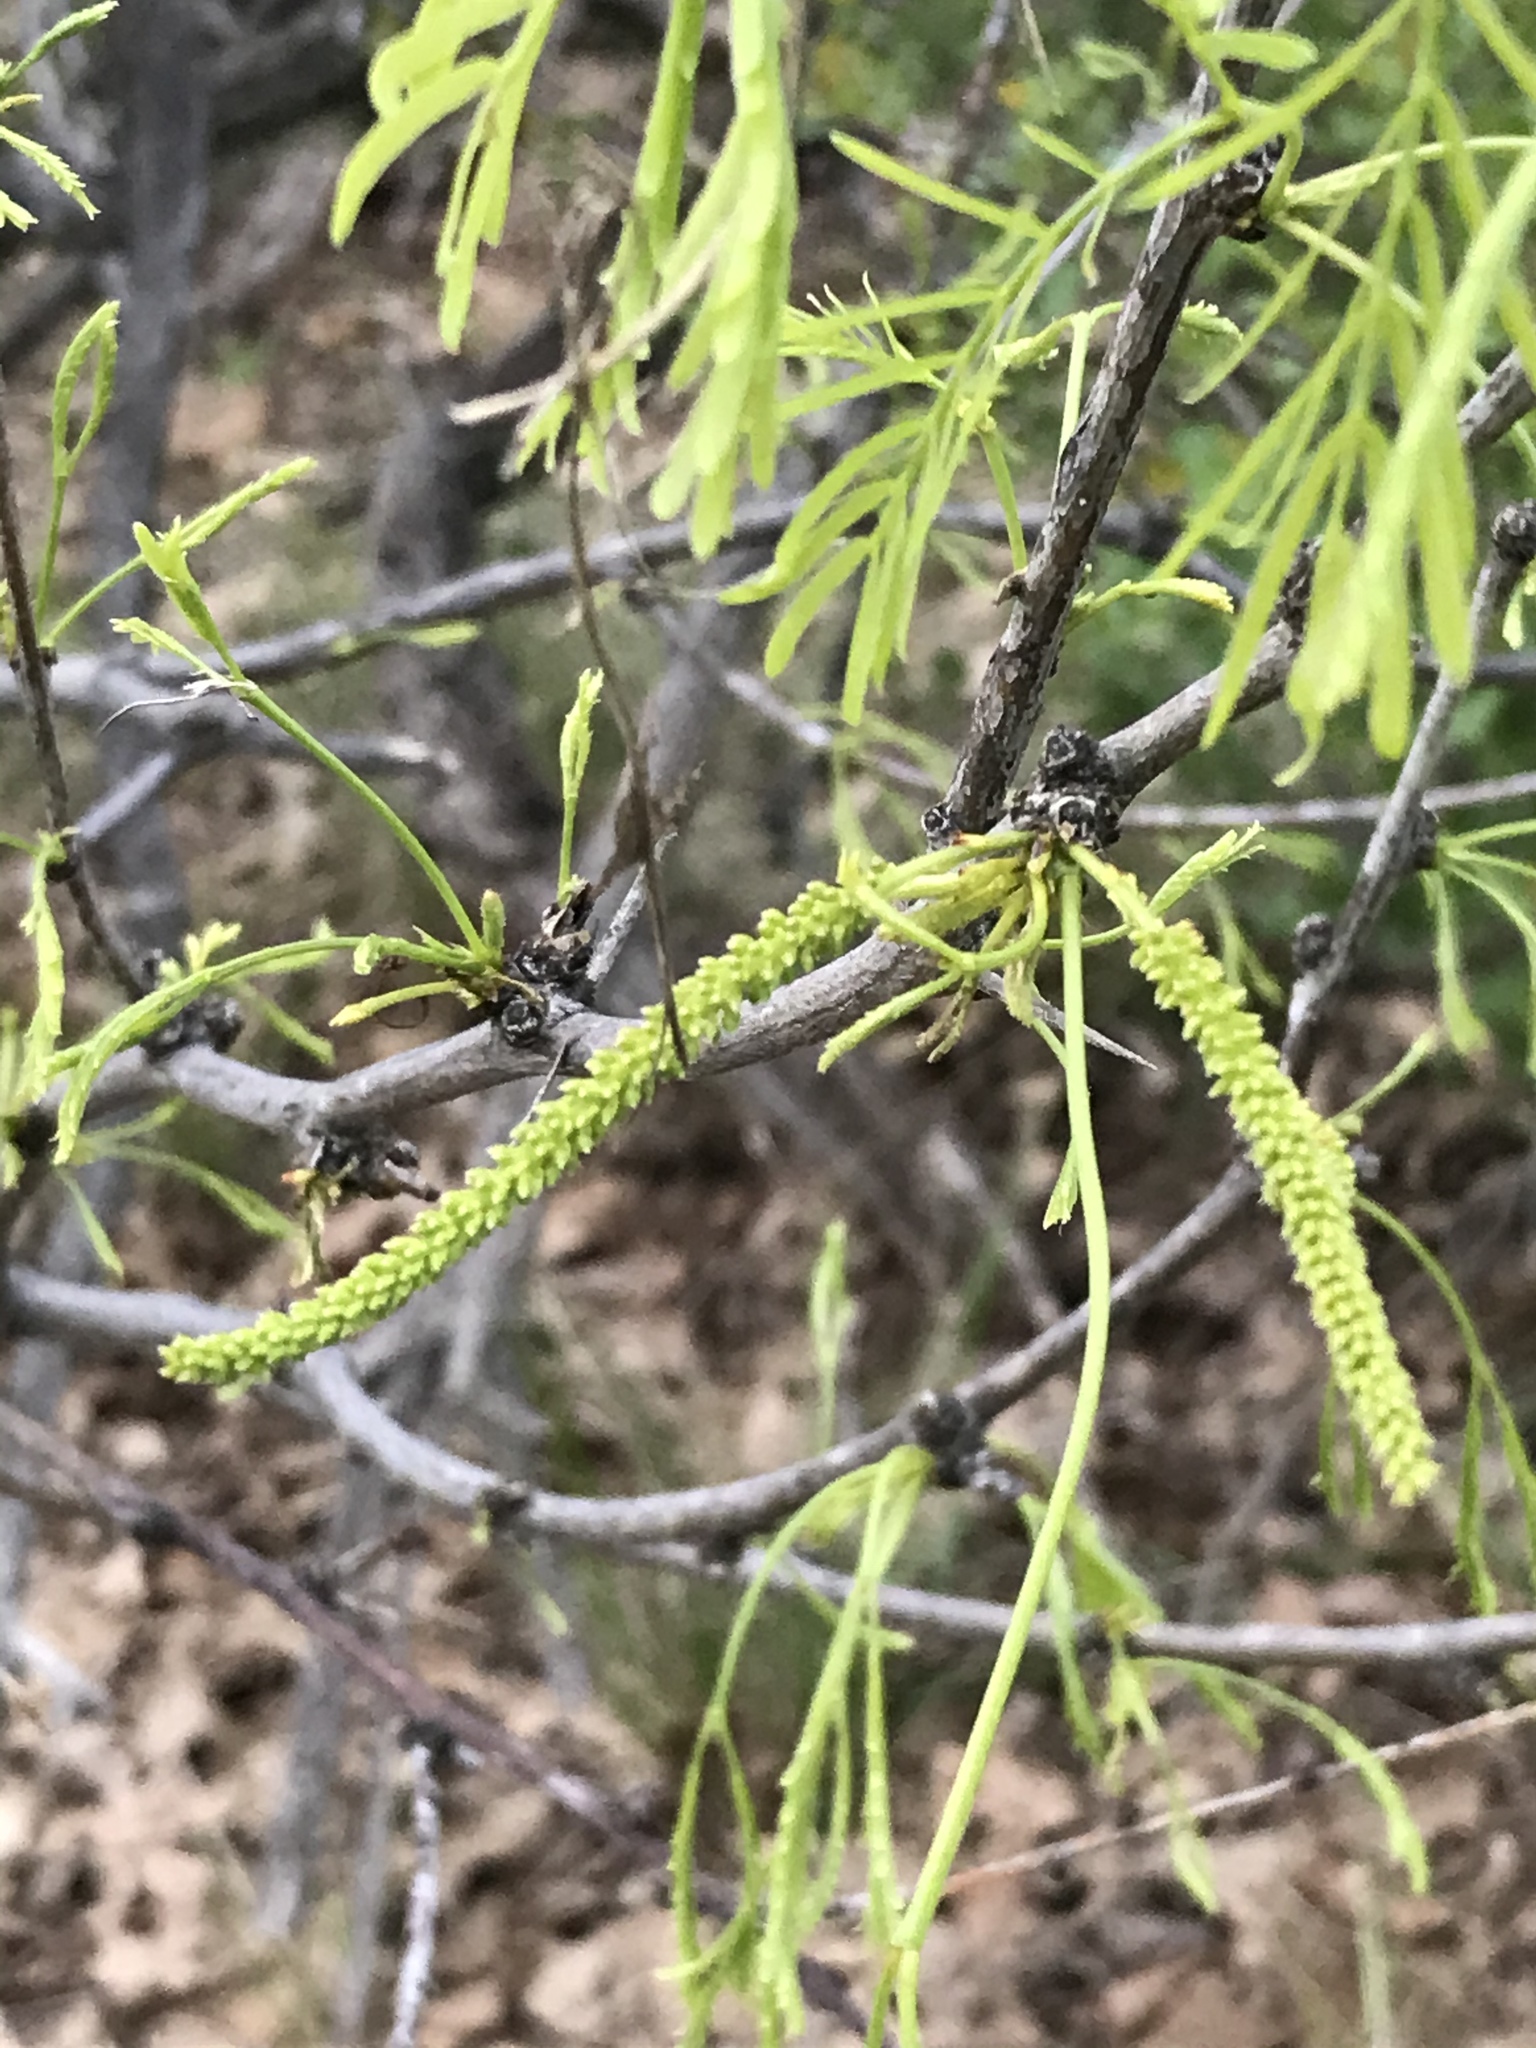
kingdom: Plantae
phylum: Tracheophyta
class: Magnoliopsida
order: Fabales
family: Fabaceae
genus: Prosopis
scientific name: Prosopis glandulosa
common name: Honey mesquite
